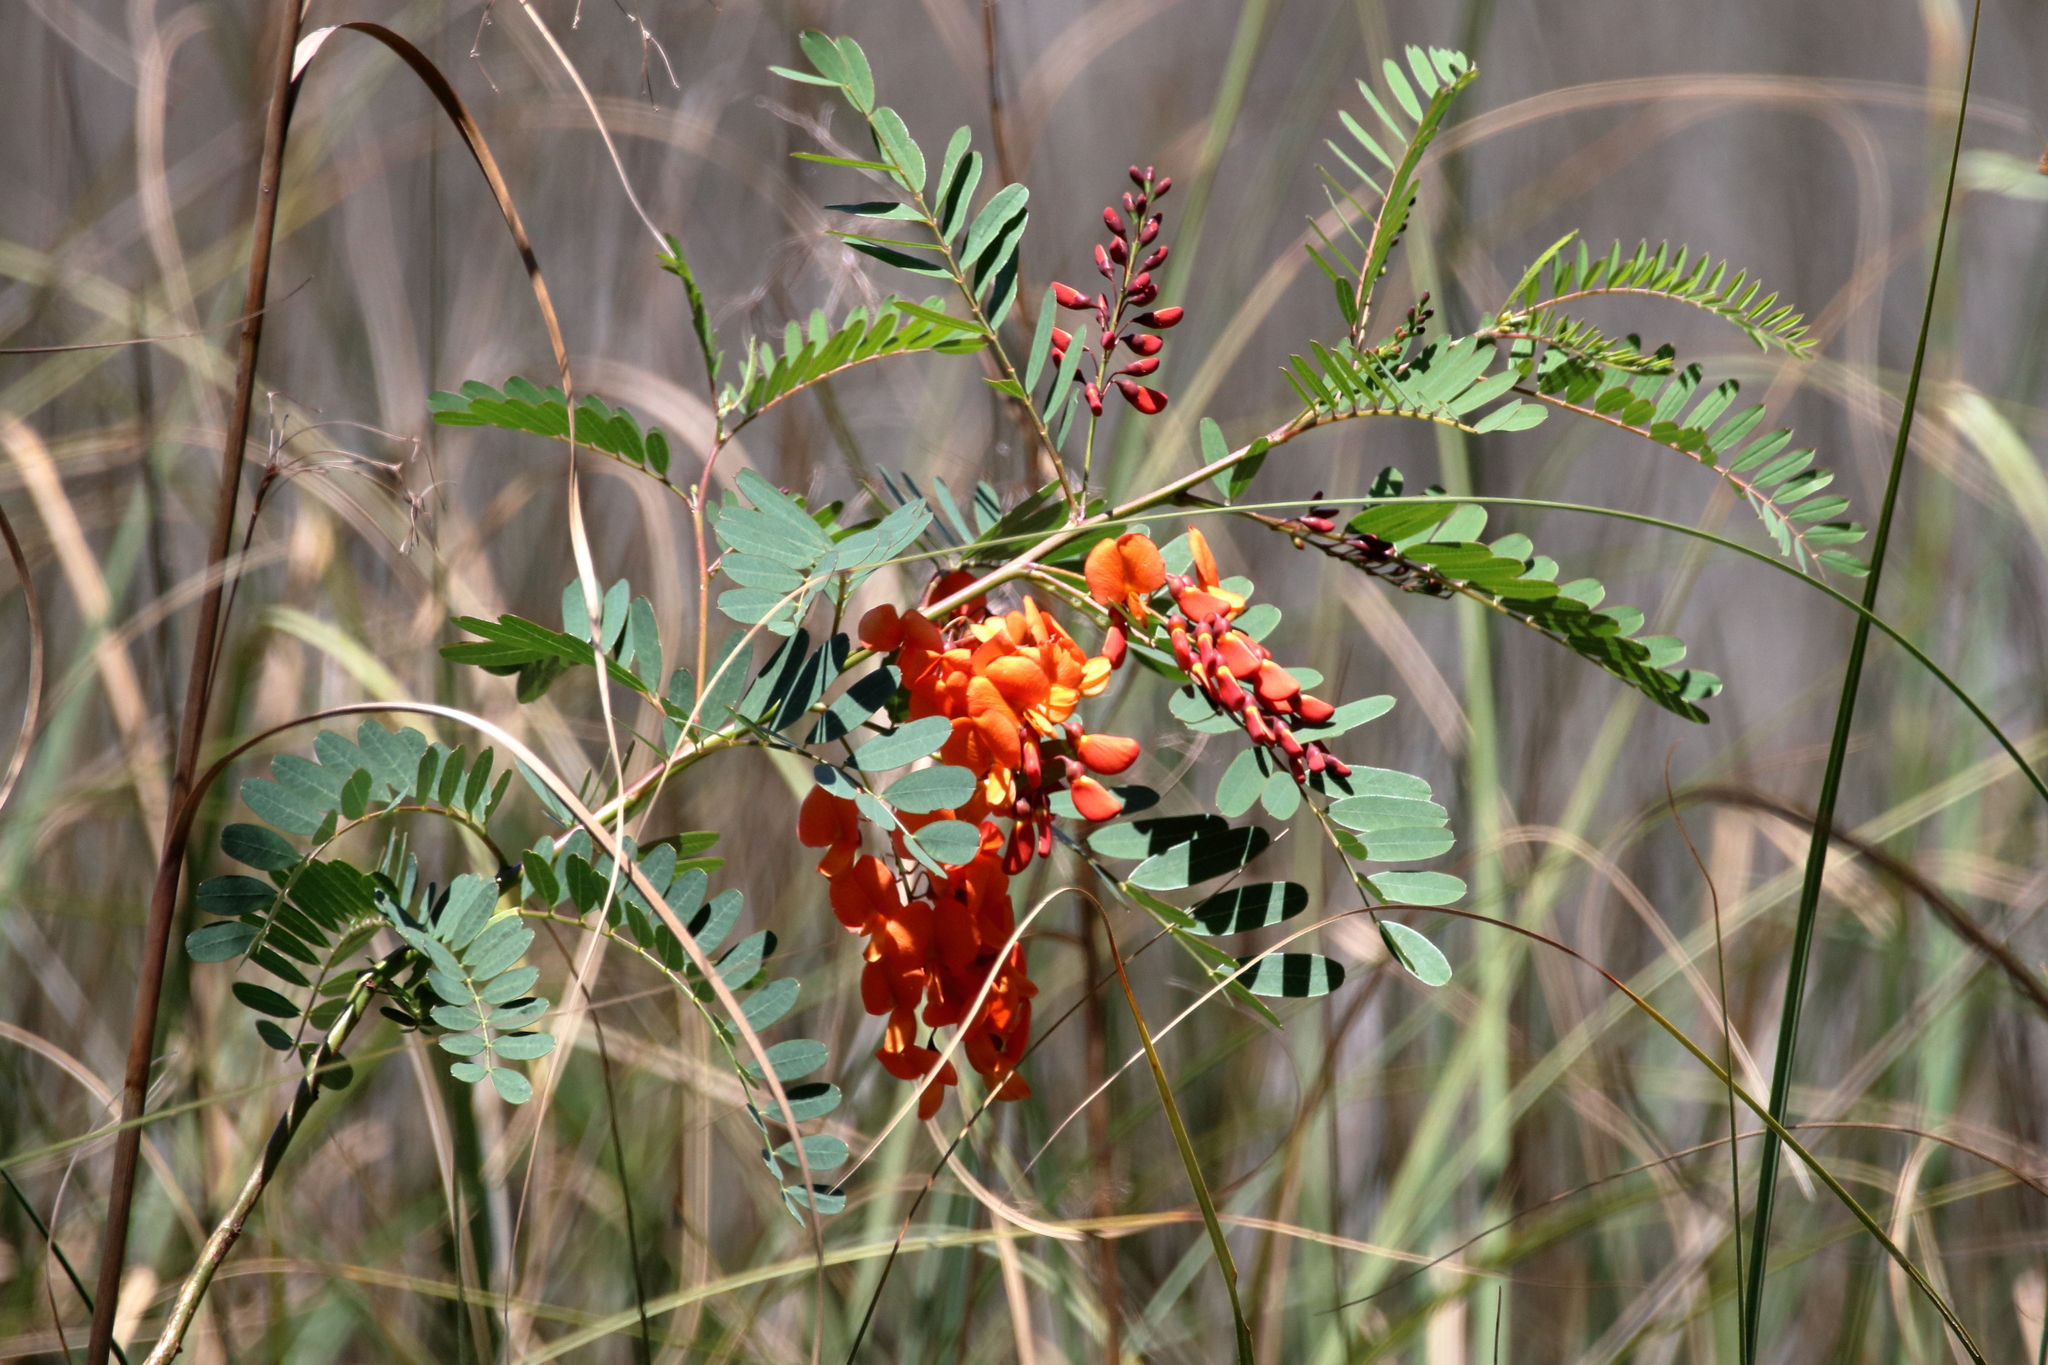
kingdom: Plantae
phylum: Tracheophyta
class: Magnoliopsida
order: Fabales
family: Fabaceae
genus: Sesbania
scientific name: Sesbania punicea
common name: Rattlebox
